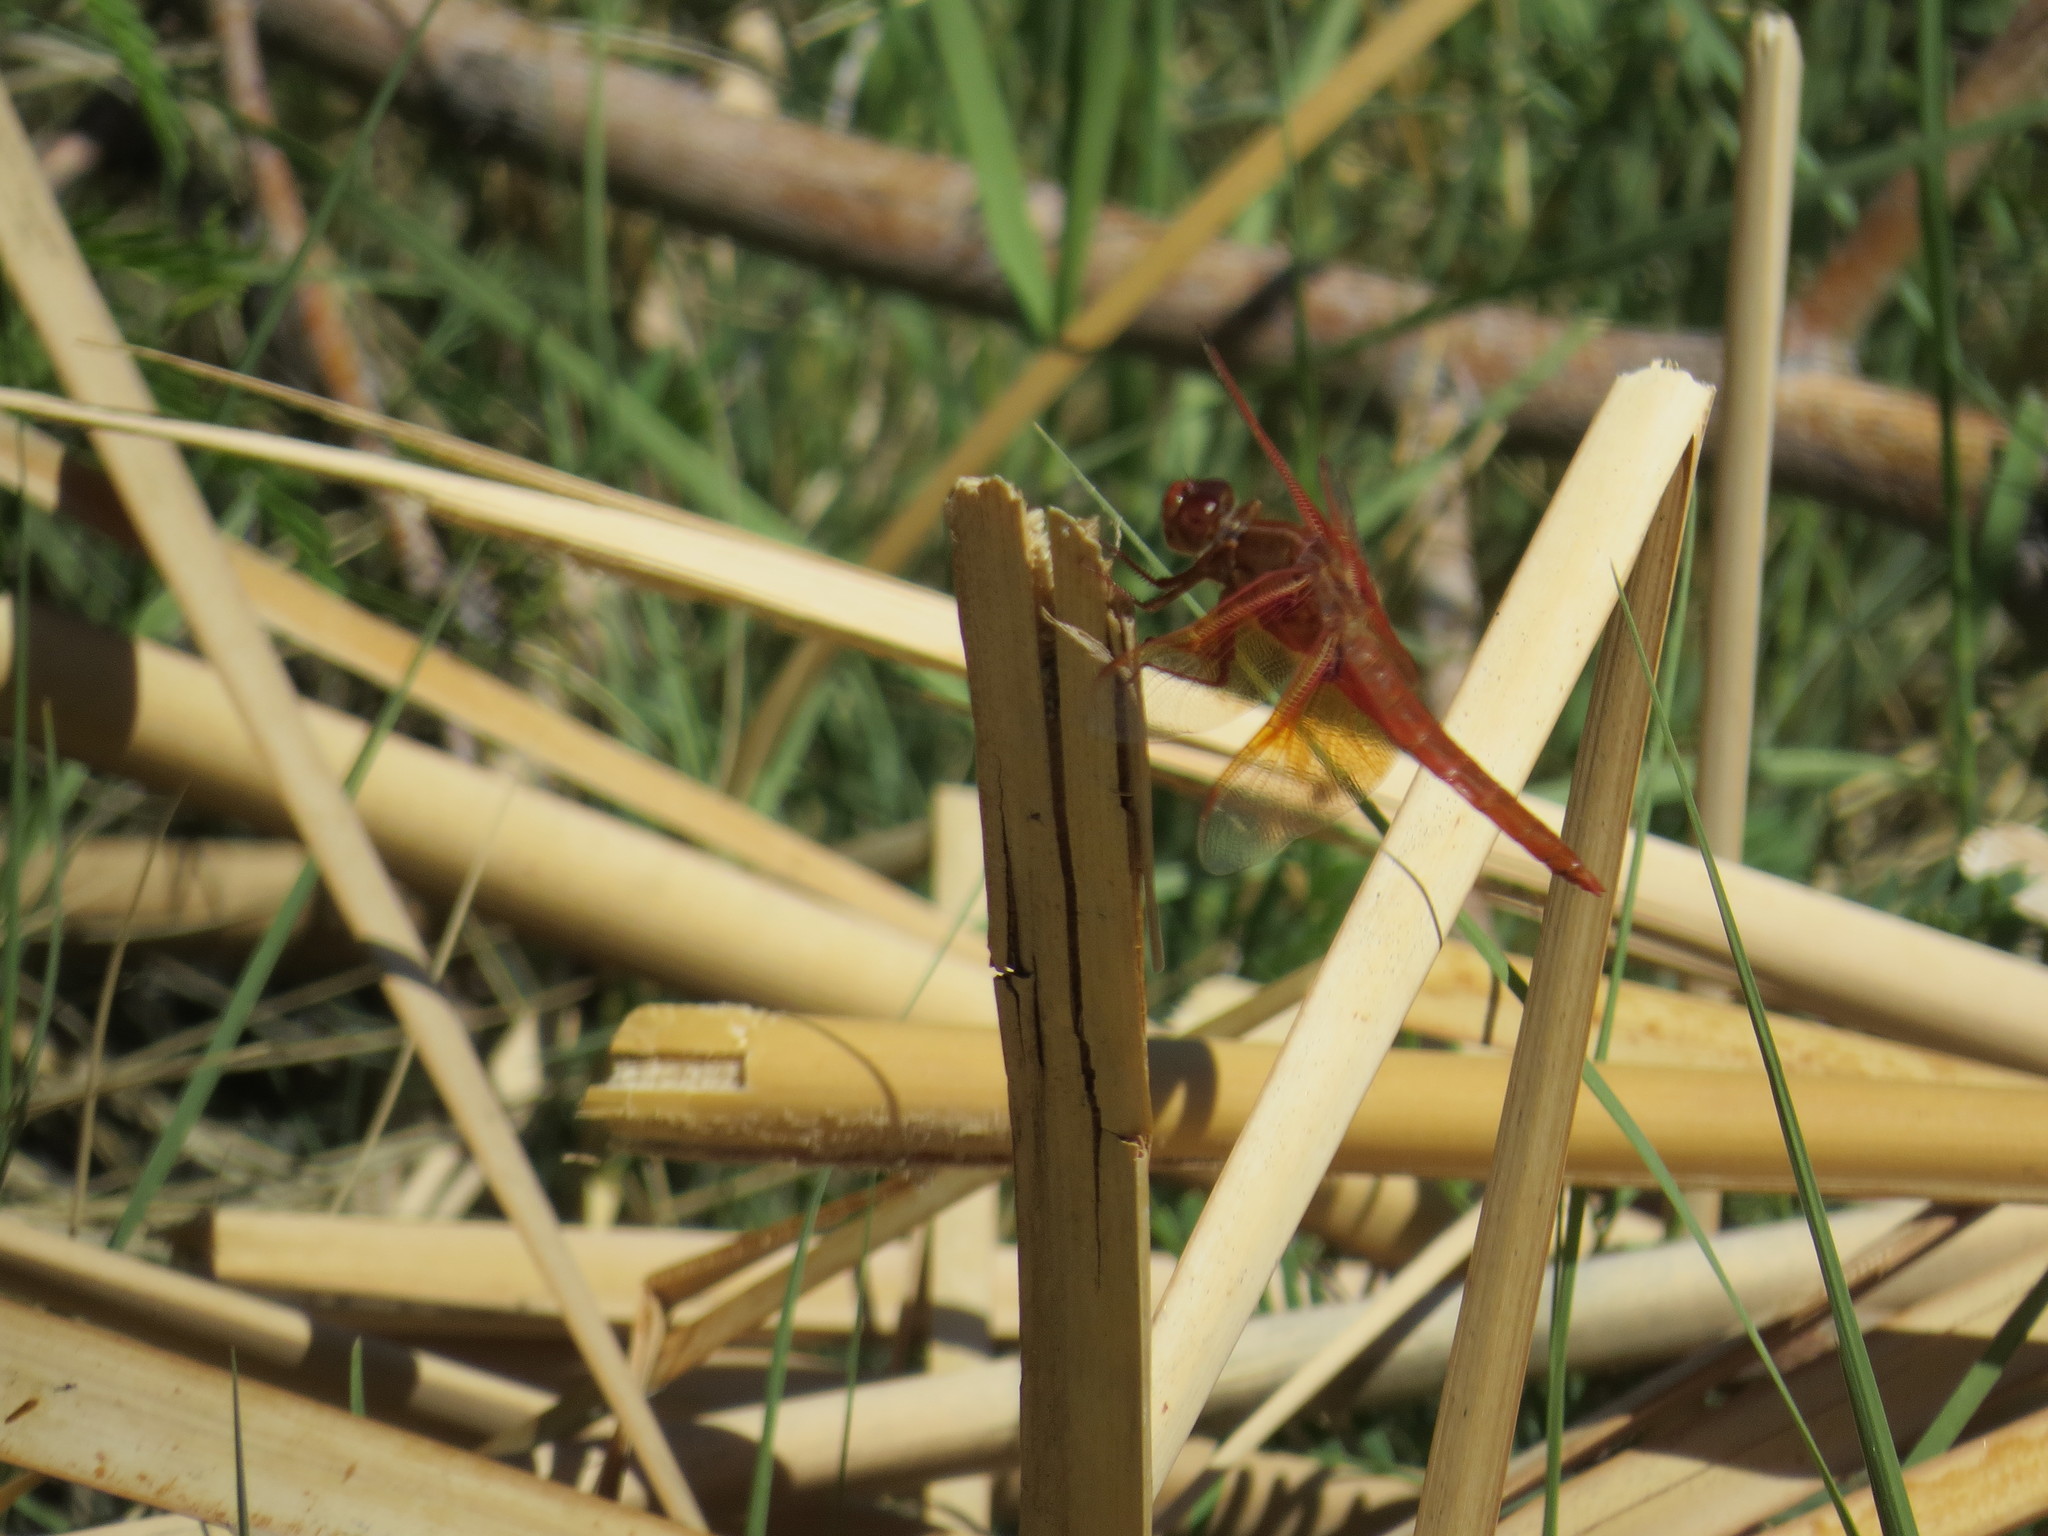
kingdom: Animalia
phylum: Arthropoda
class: Insecta
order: Odonata
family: Libellulidae
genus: Libellula
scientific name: Libellula saturata
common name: Flame skimmer
